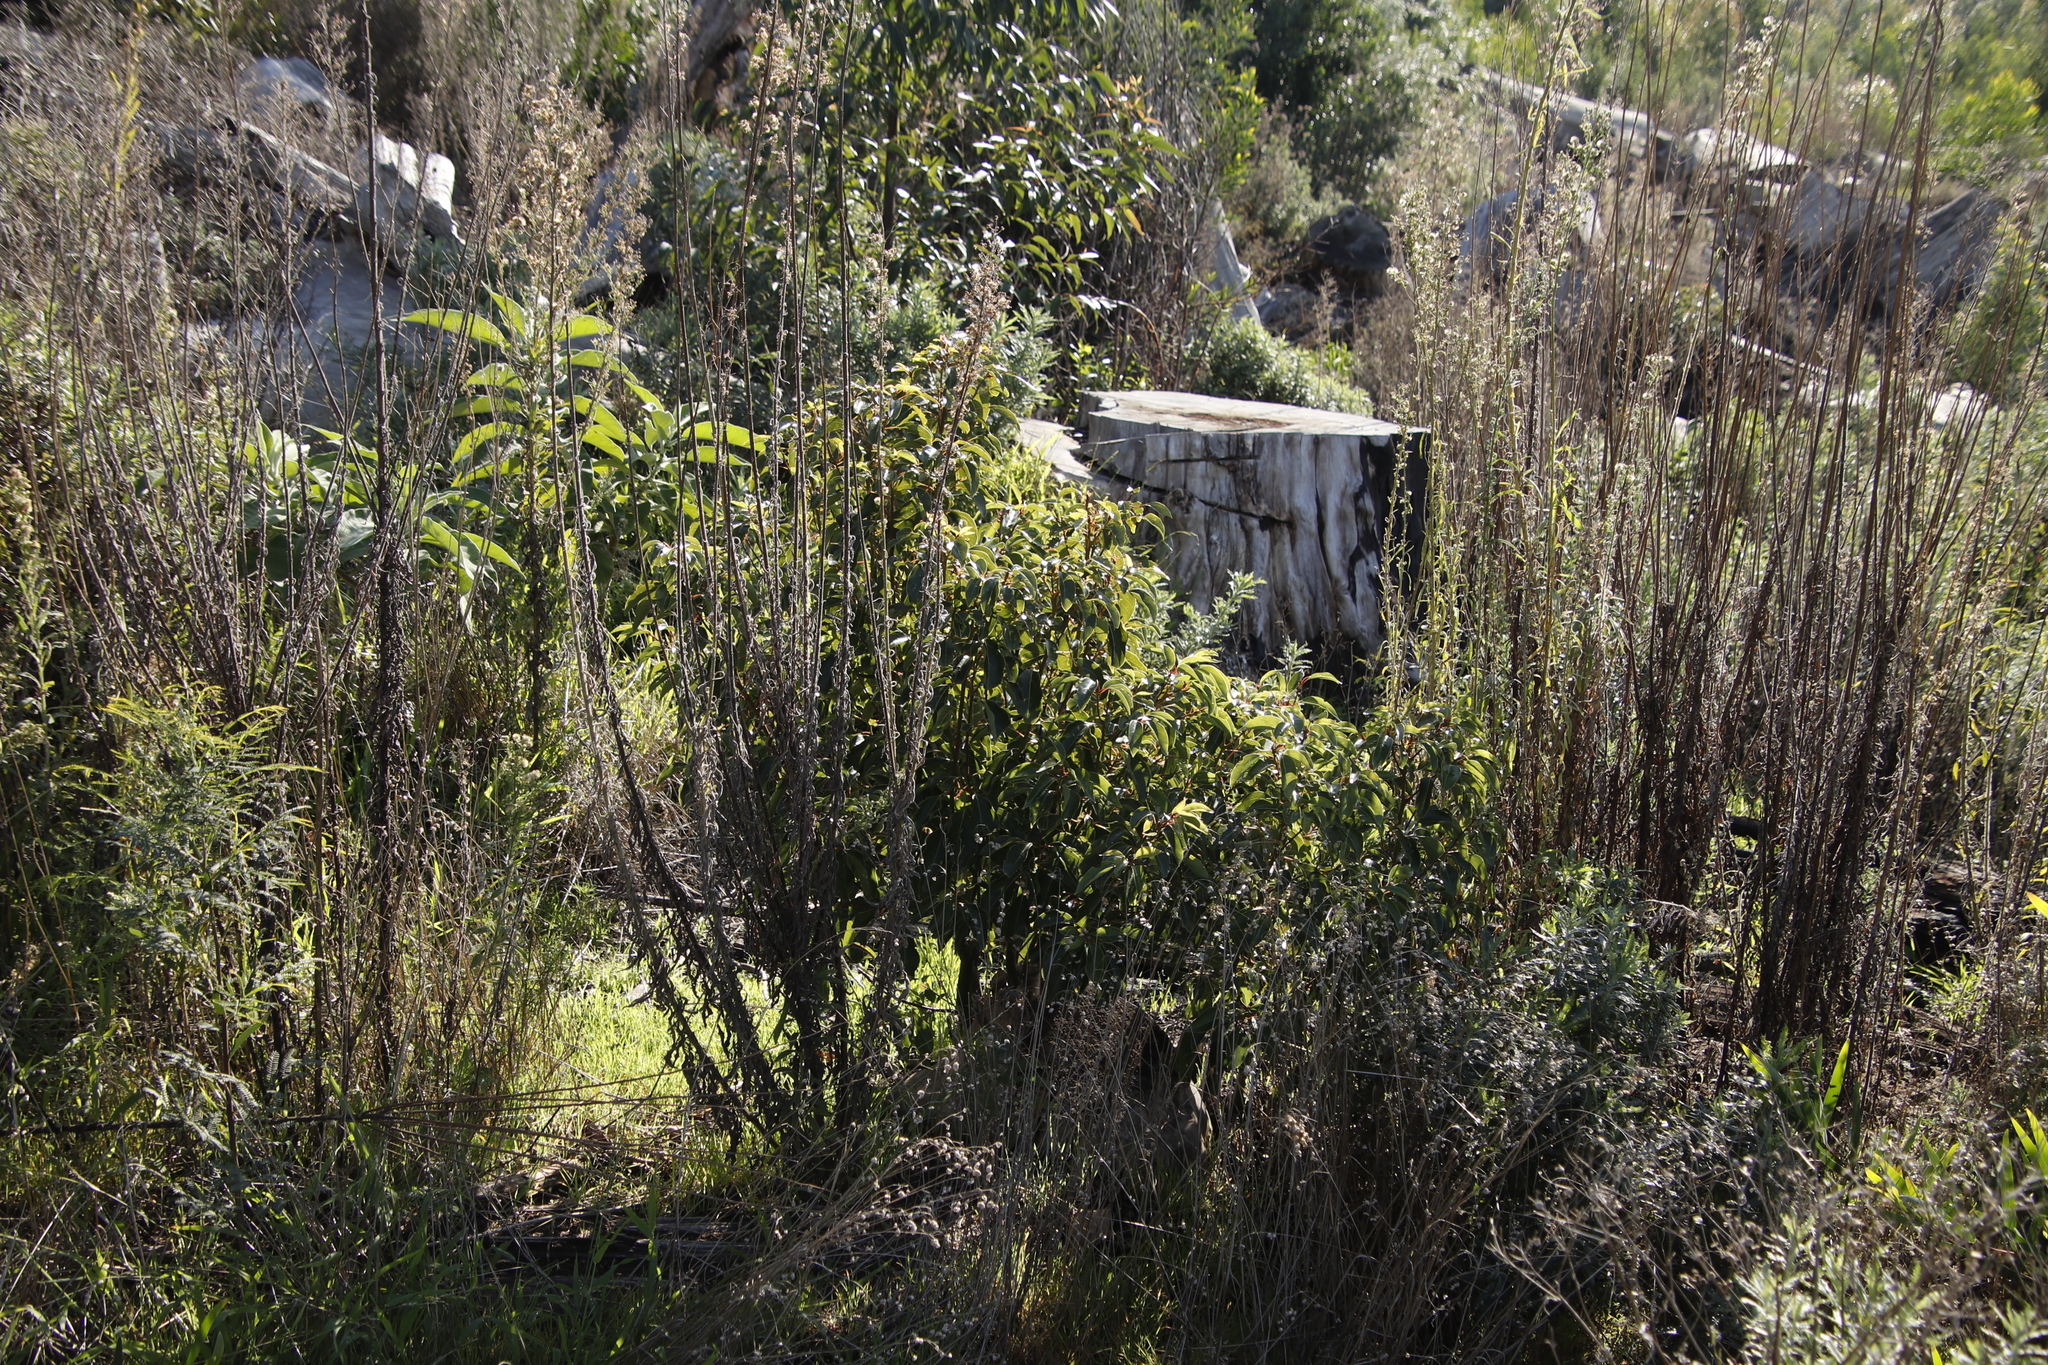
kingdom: Plantae
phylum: Tracheophyta
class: Magnoliopsida
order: Laurales
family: Lauraceae
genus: Cinnamomum
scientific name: Cinnamomum camphora
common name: Camphortree
